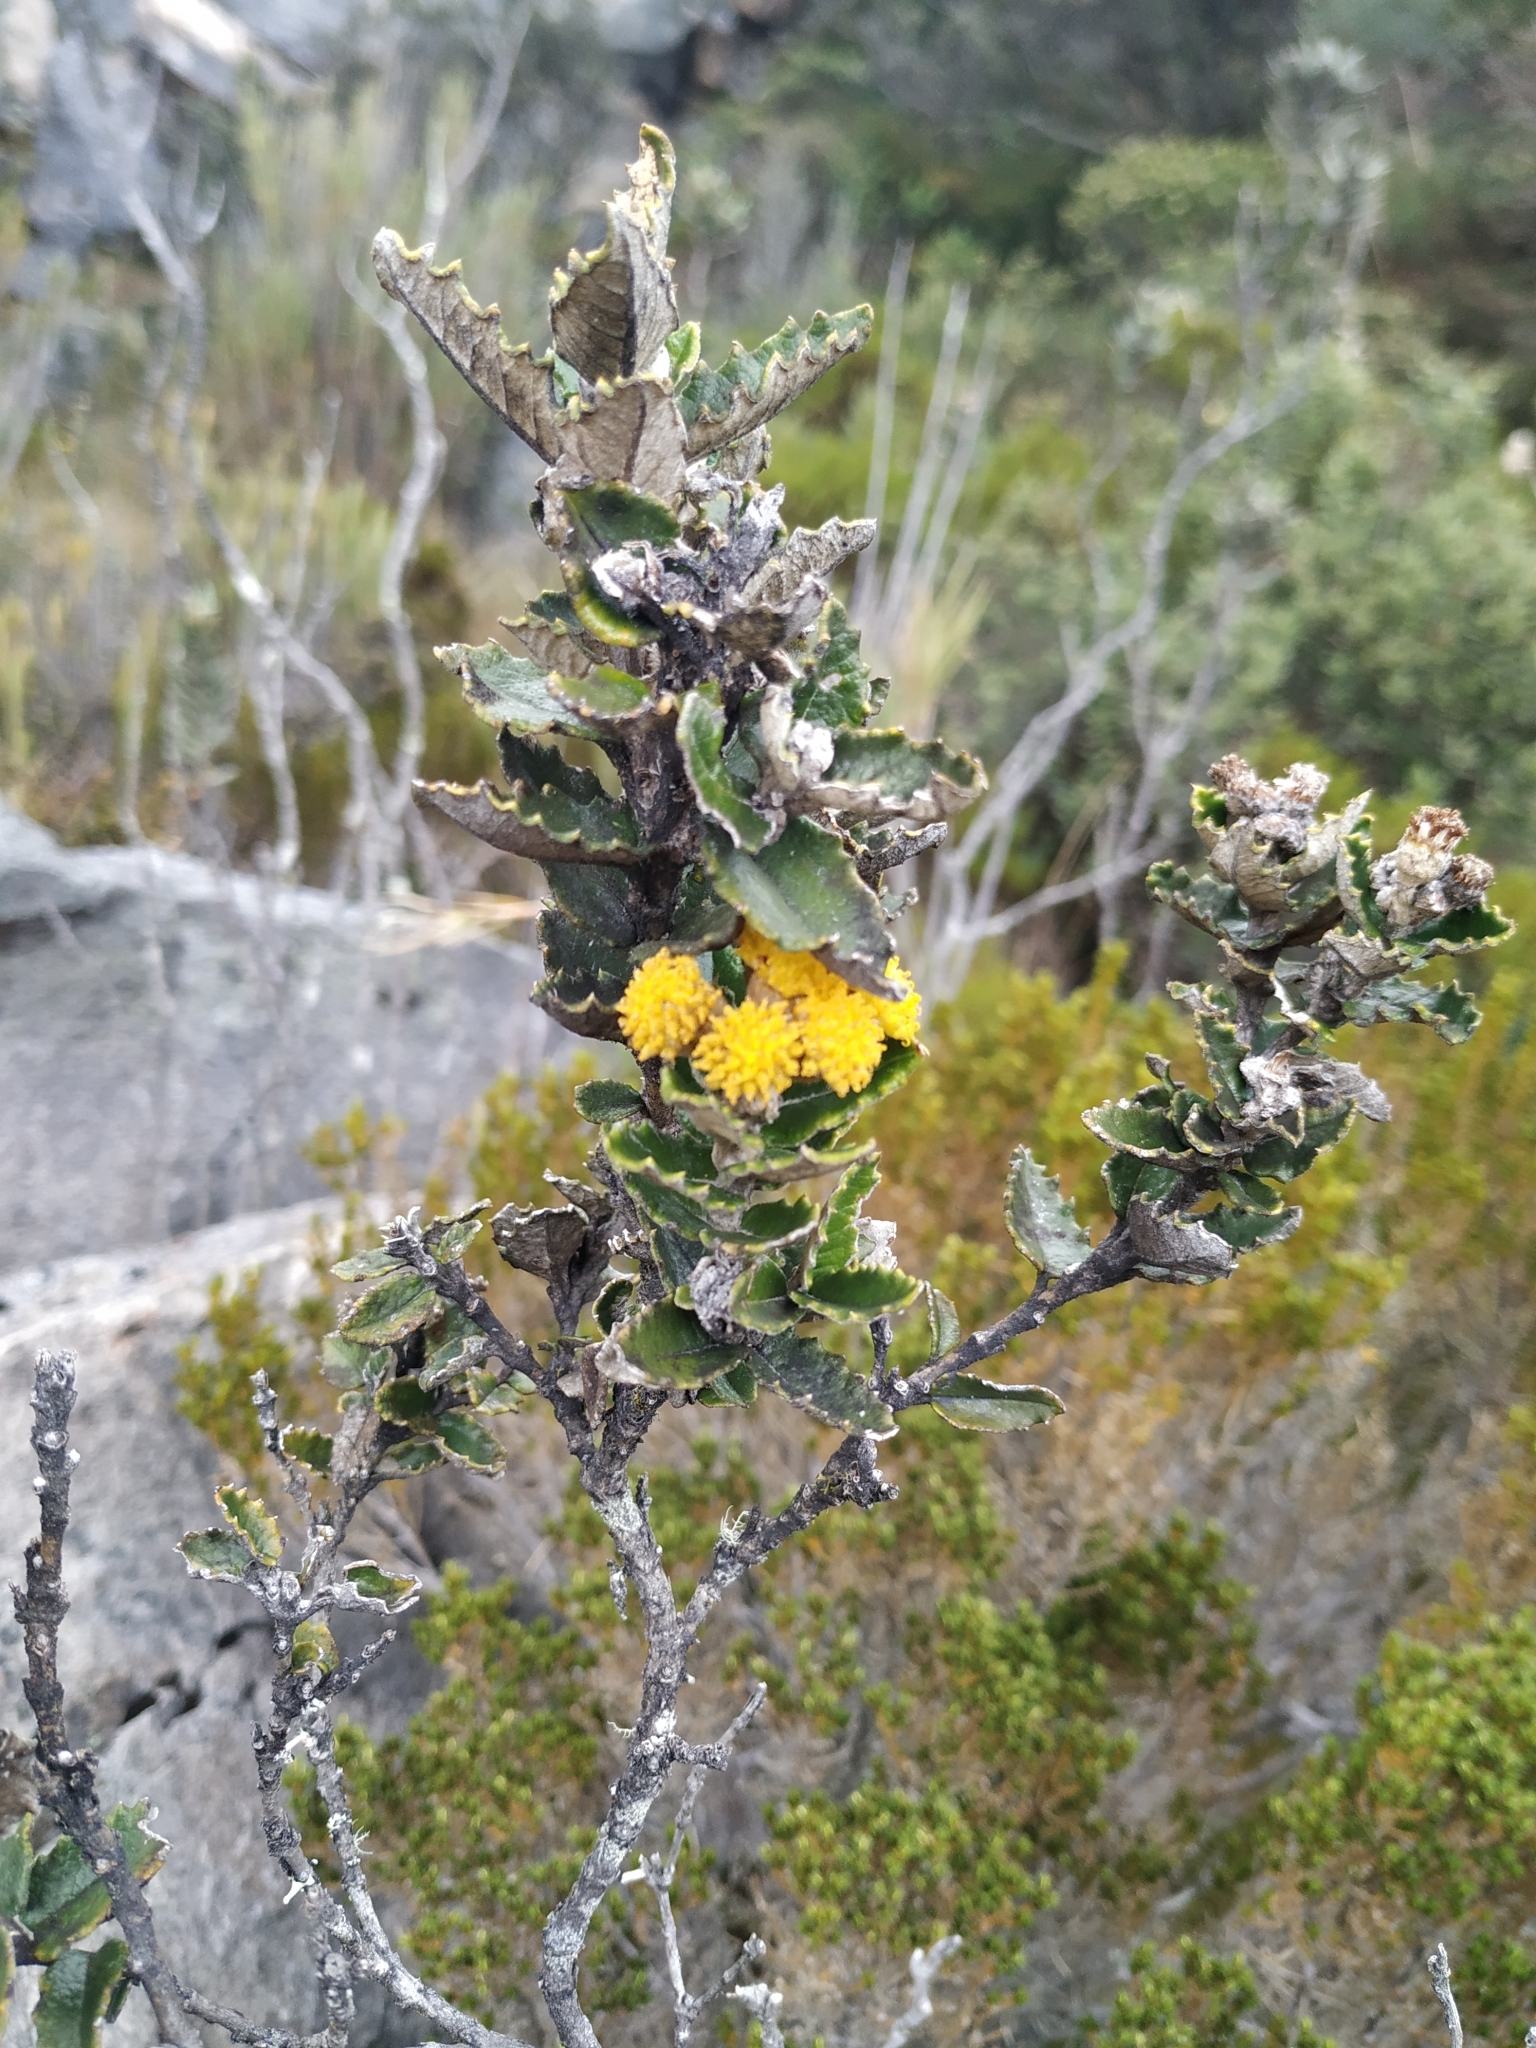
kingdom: Plantae
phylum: Tracheophyta
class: Magnoliopsida
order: Asterales
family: Asteraceae
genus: Scrobicaria
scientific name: Scrobicaria ilicifolia
